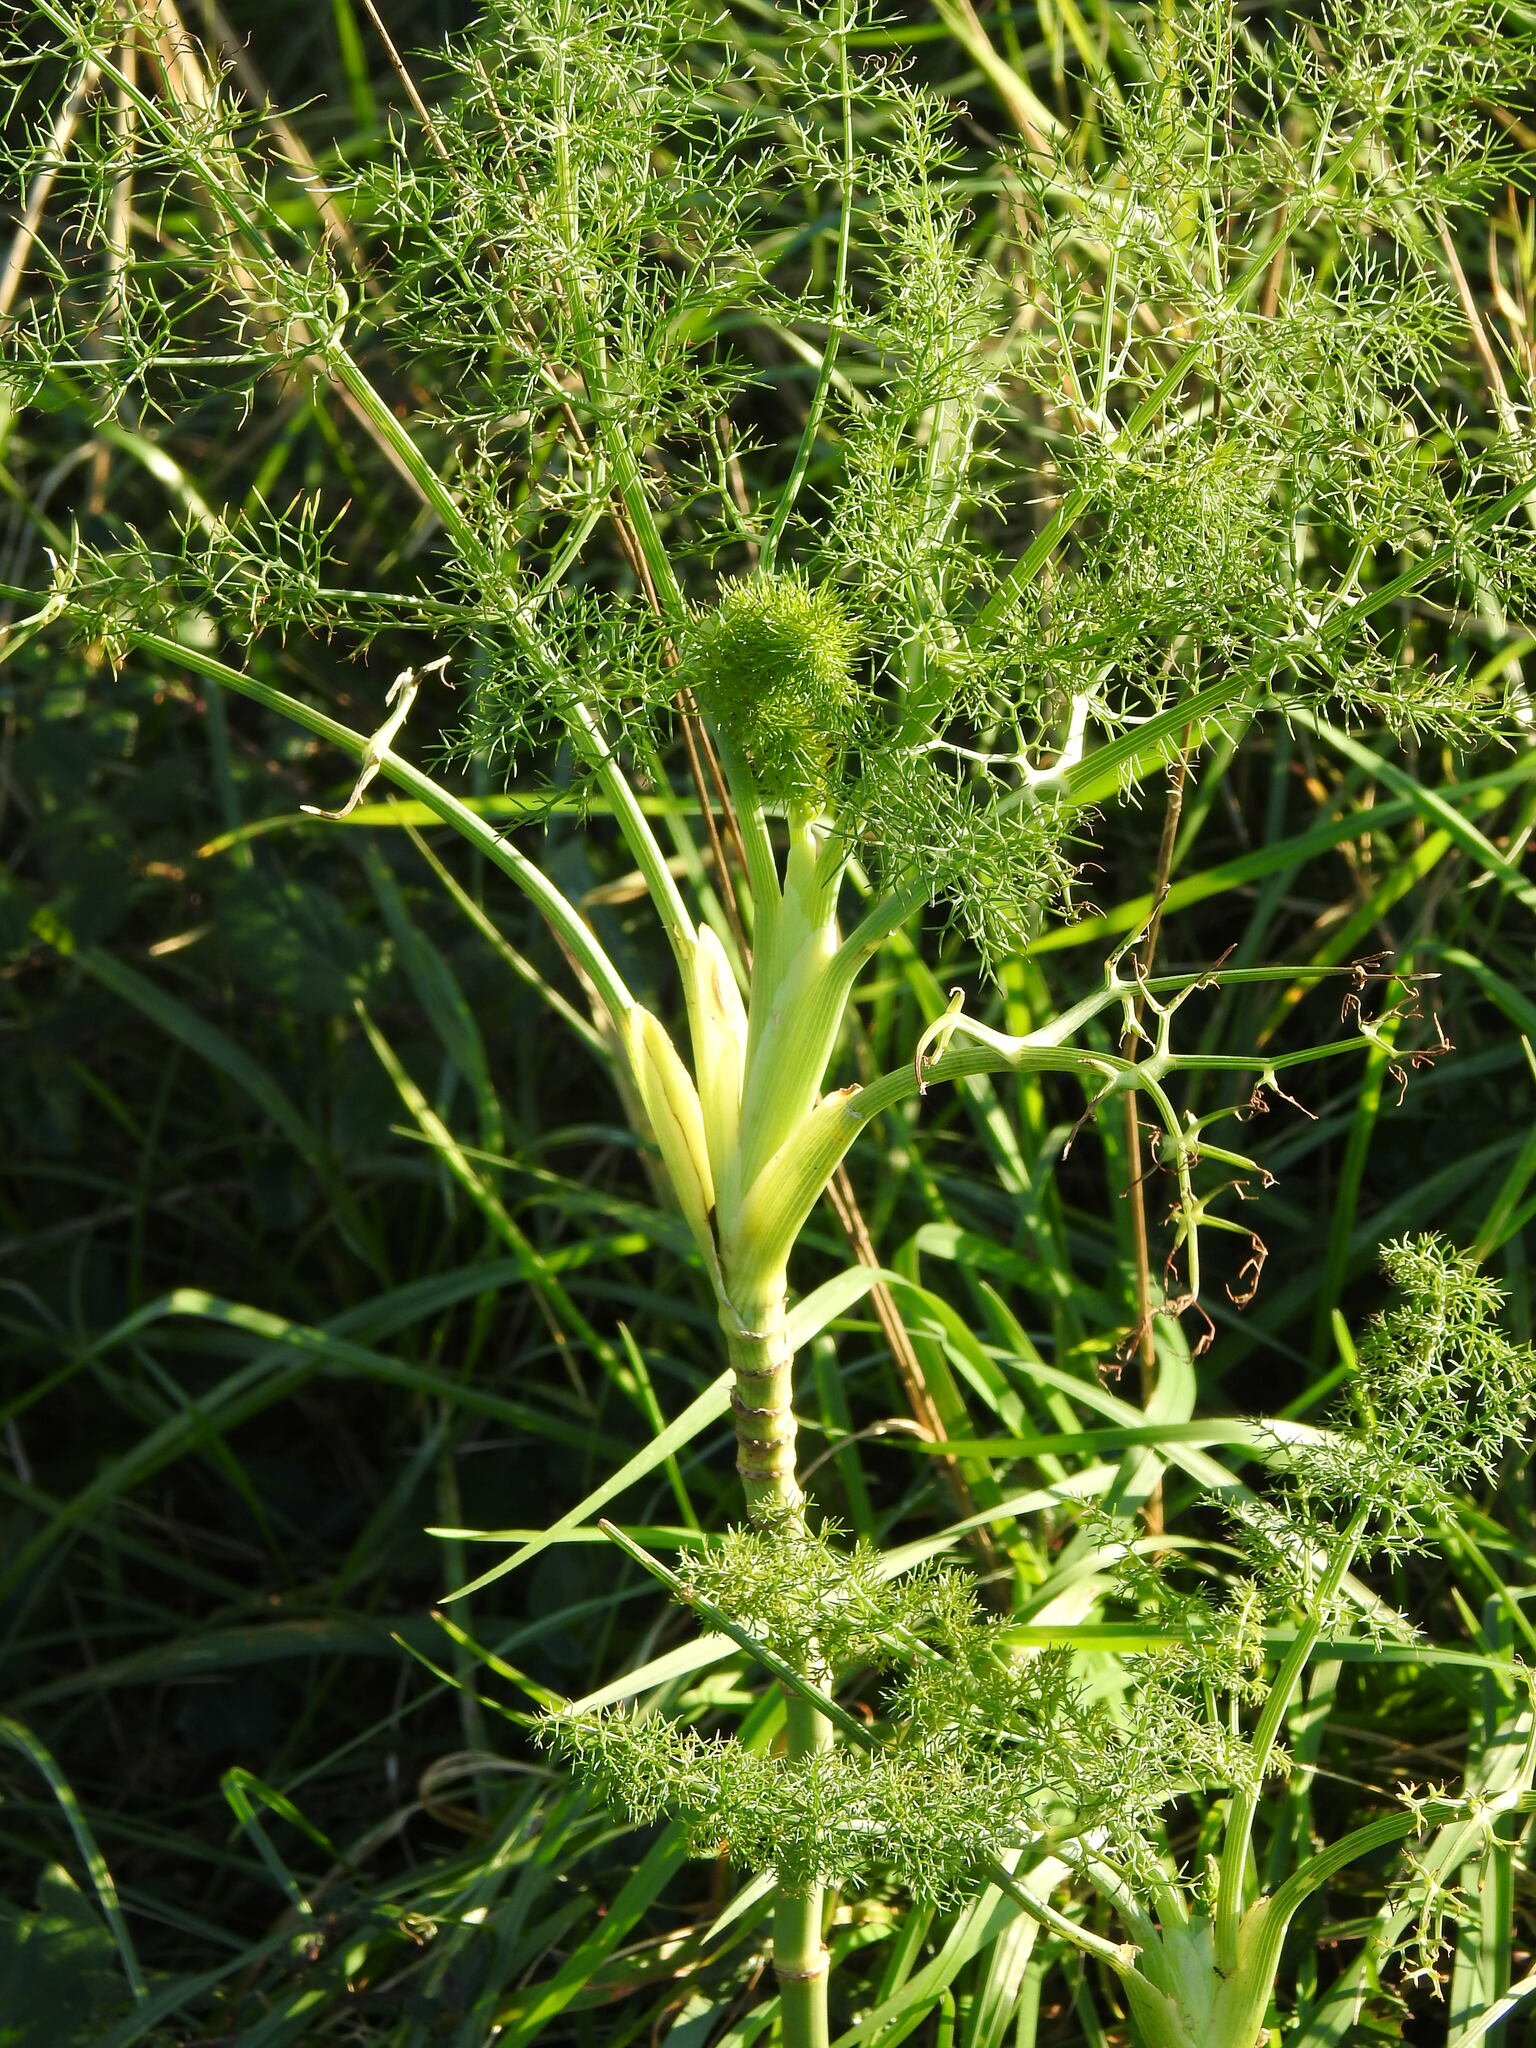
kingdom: Plantae
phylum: Tracheophyta
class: Magnoliopsida
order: Apiales
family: Apiaceae
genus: Foeniculum
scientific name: Foeniculum vulgare
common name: Fennel
